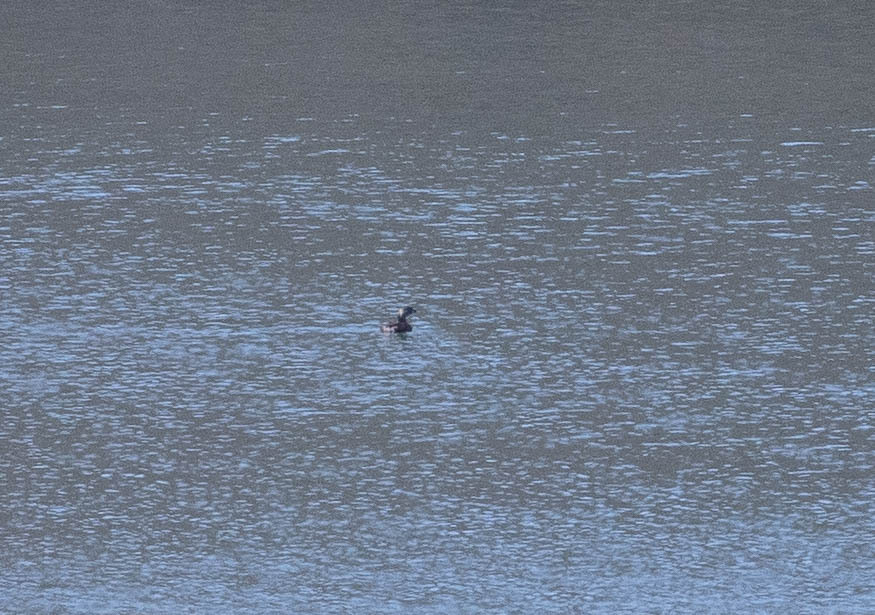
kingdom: Animalia
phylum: Chordata
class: Aves
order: Podicipediformes
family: Podicipedidae
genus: Podilymbus
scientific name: Podilymbus podiceps
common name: Pied-billed grebe
